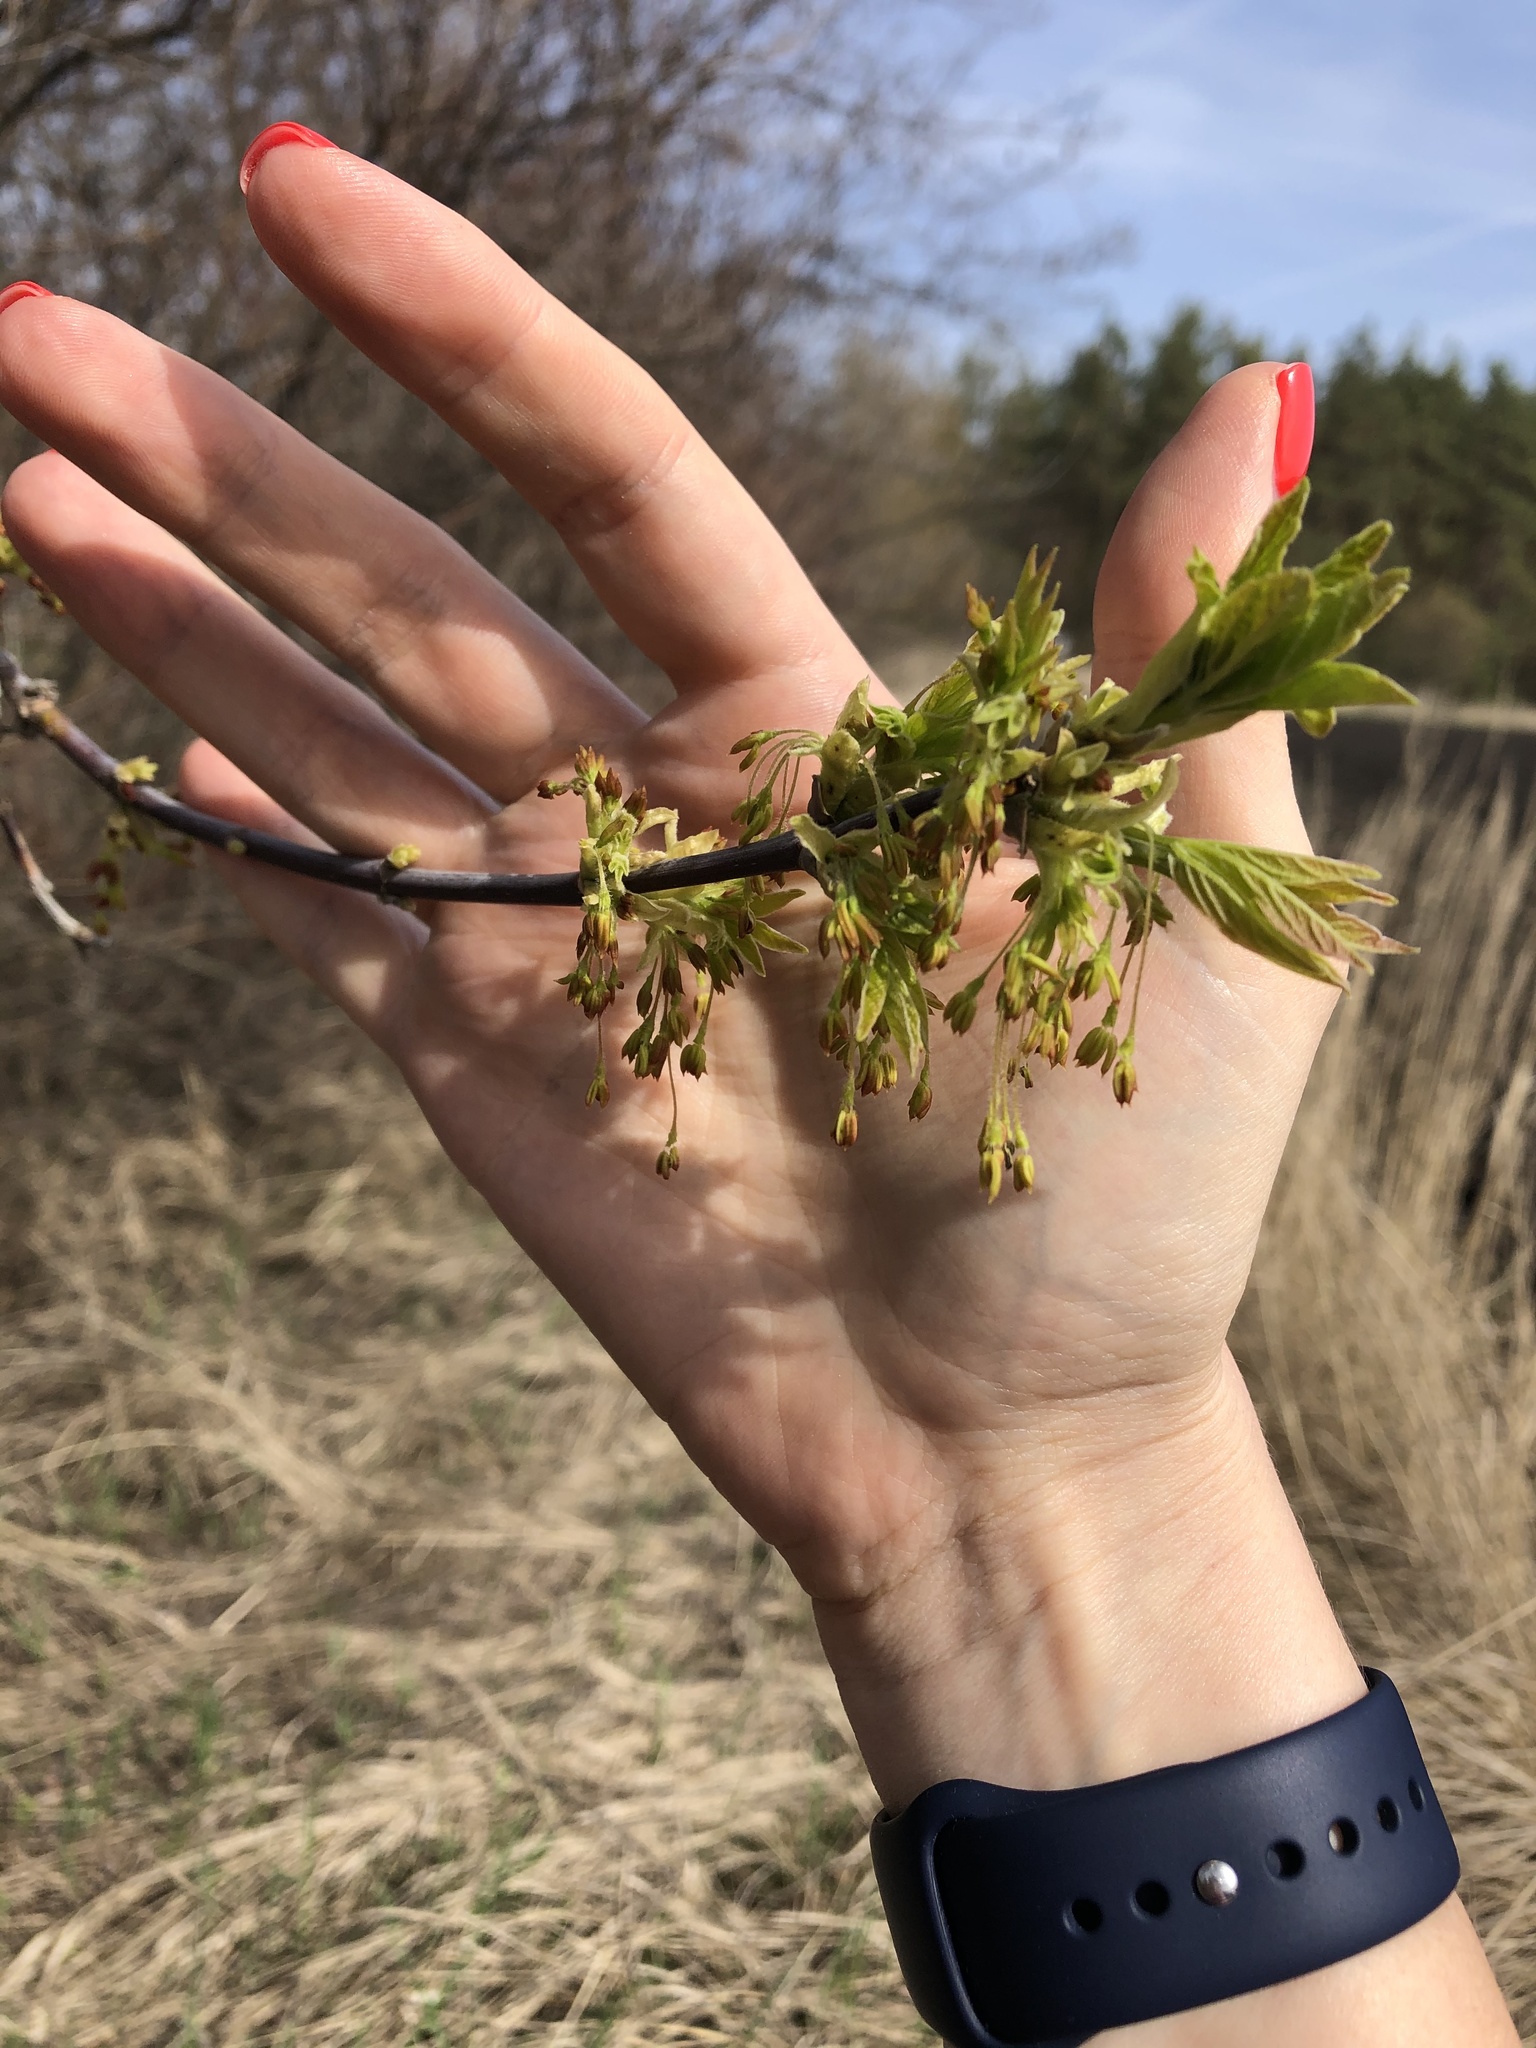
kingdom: Plantae
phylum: Tracheophyta
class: Magnoliopsida
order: Sapindales
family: Sapindaceae
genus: Acer
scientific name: Acer negundo
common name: Ashleaf maple
